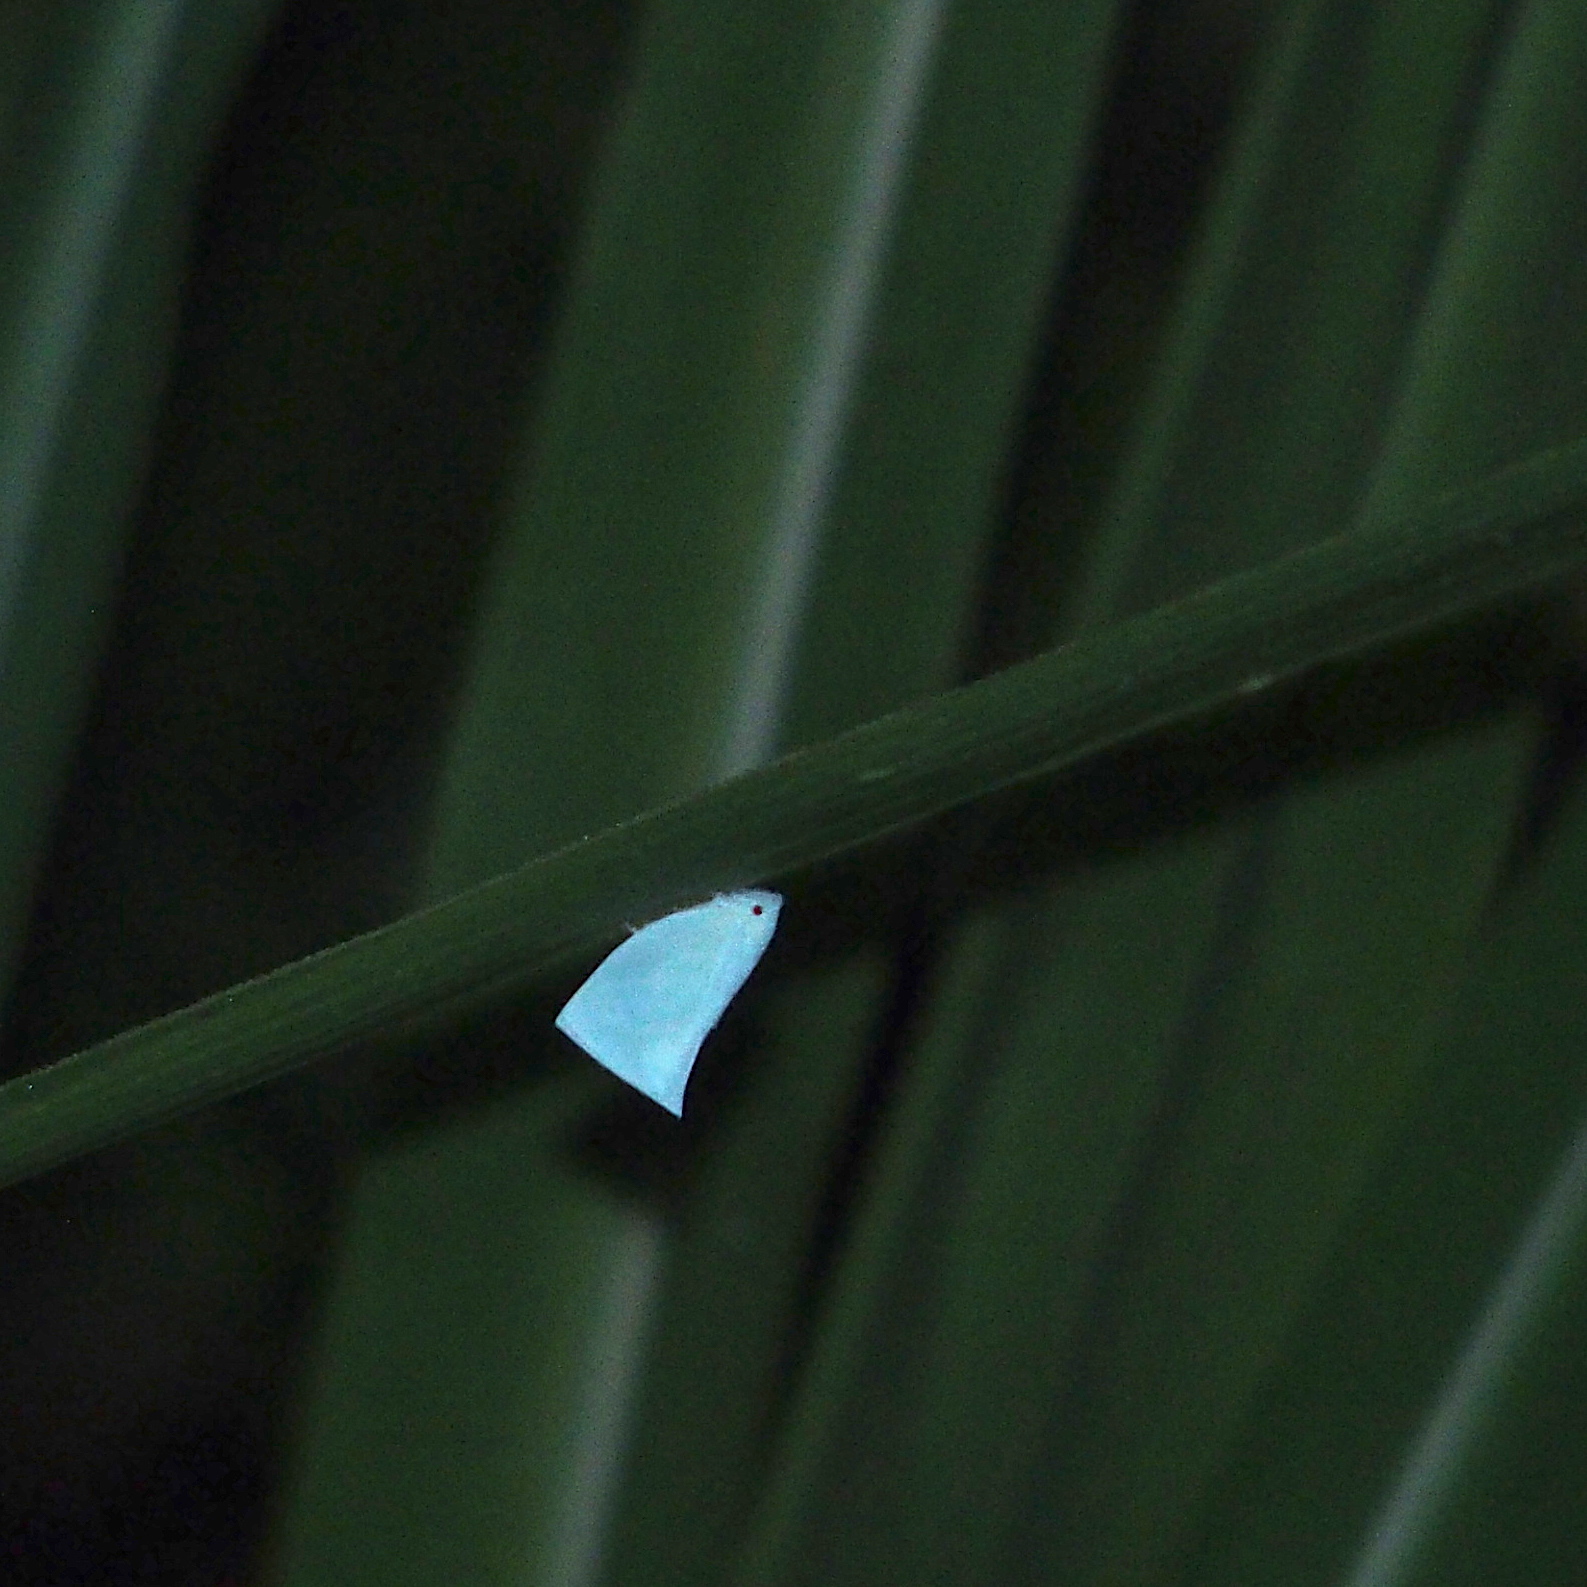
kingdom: Animalia
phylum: Arthropoda
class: Insecta
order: Hemiptera
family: Flatidae
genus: Phylliana
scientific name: Phylliana alba
